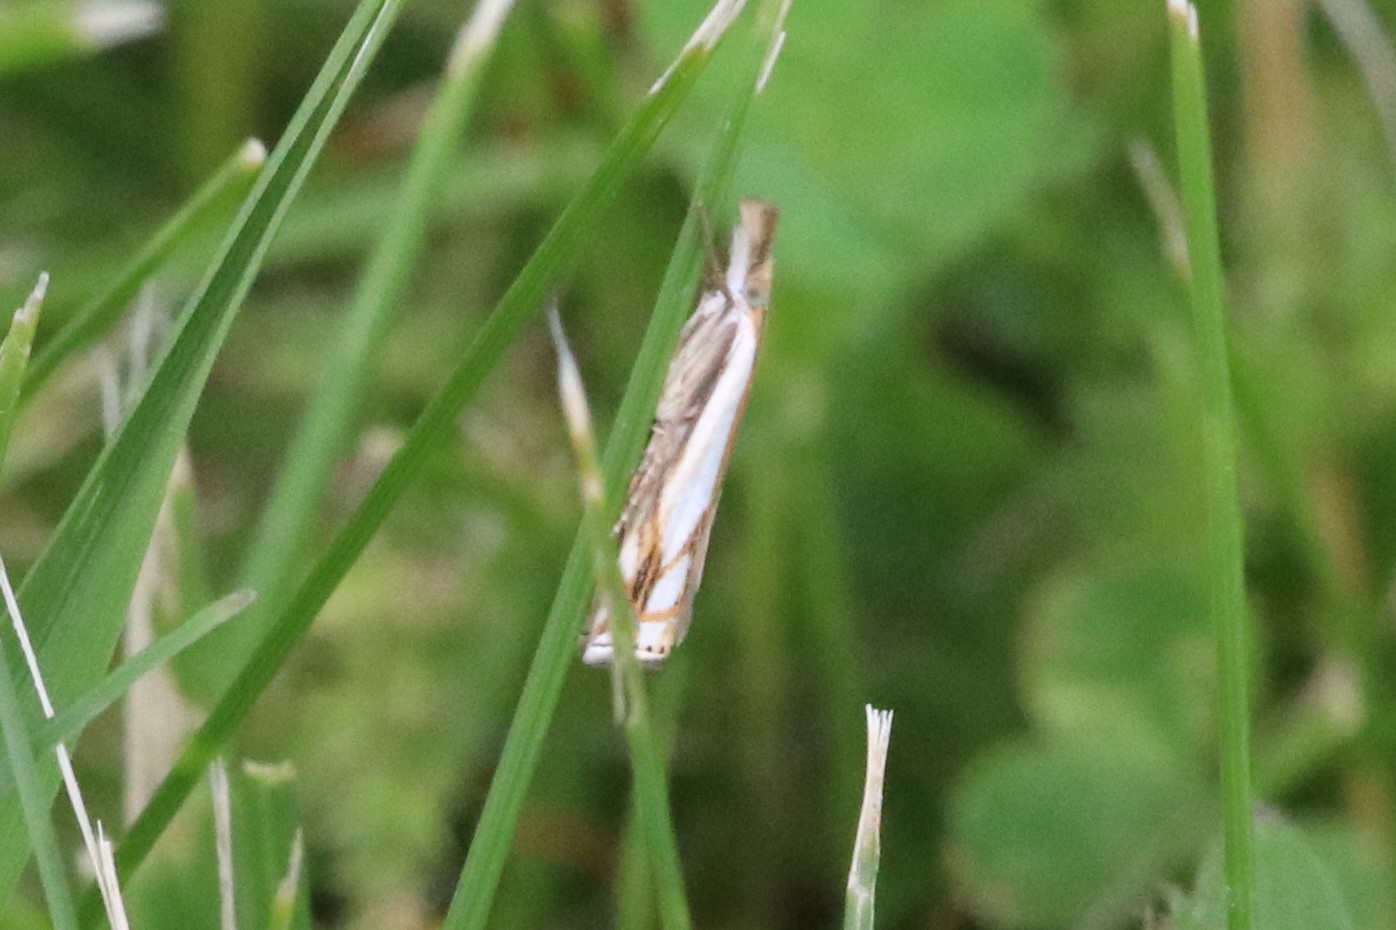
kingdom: Animalia
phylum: Arthropoda
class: Insecta
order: Lepidoptera
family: Crambidae
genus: Crambus
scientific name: Crambus agitatellus
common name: Double-banded grass-veneer
